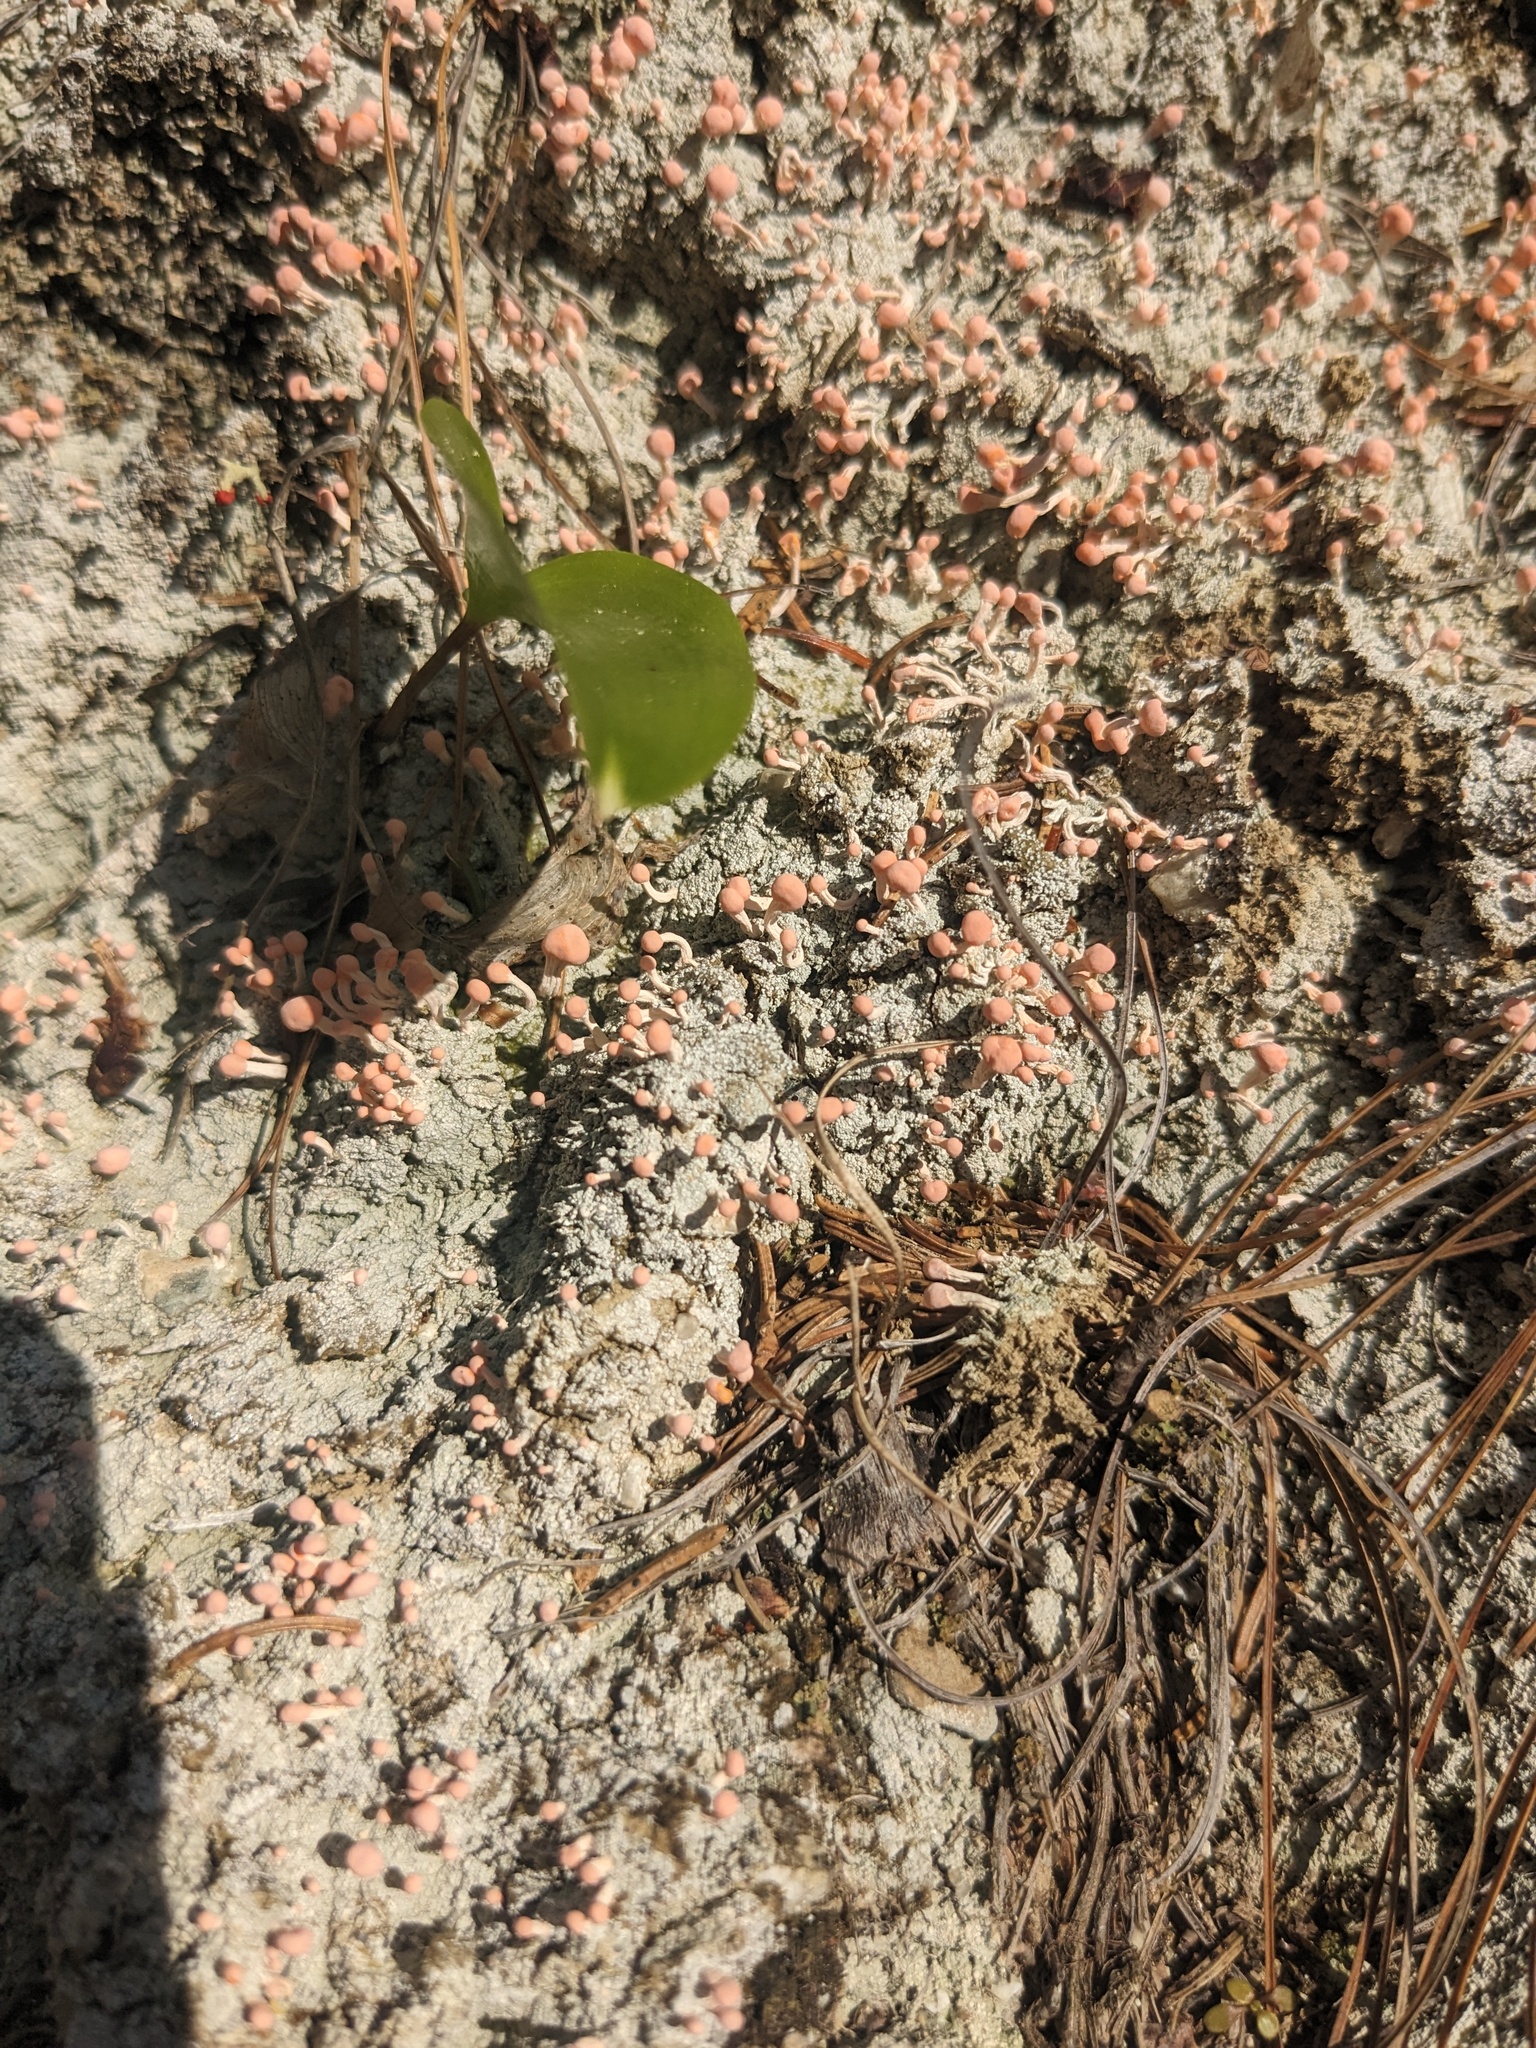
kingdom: Fungi
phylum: Ascomycota
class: Lecanoromycetes
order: Pertusariales
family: Icmadophilaceae
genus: Dibaeis
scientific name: Dibaeis baeomyces
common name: Pink earth lichen
